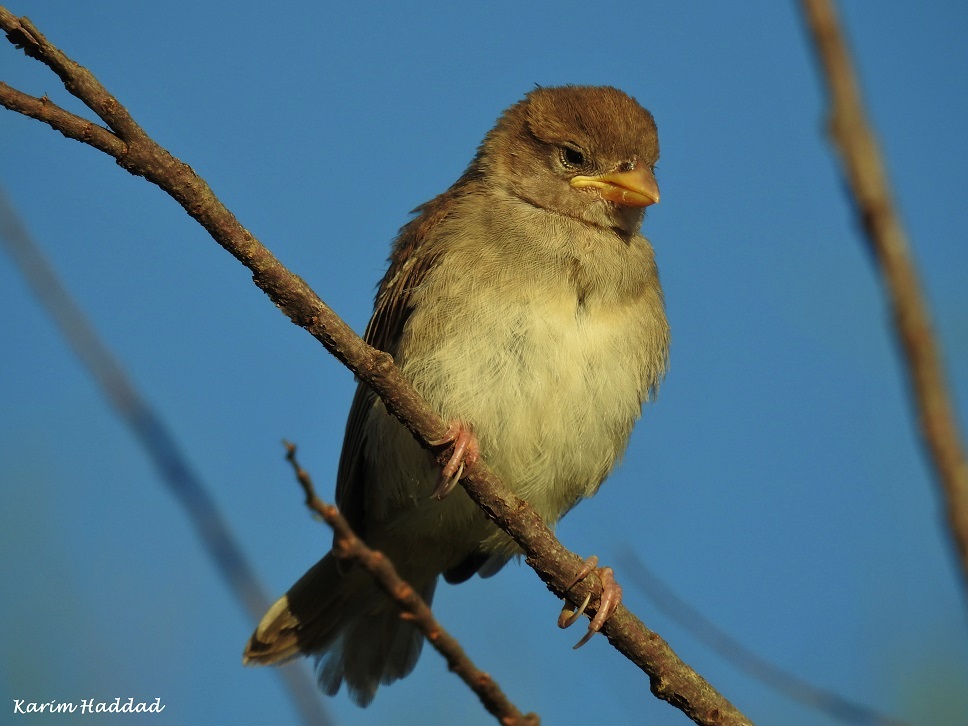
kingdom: Animalia
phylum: Chordata
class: Aves
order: Passeriformes
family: Passeridae
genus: Passer
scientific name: Passer hispaniolensis
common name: Spanish sparrow
